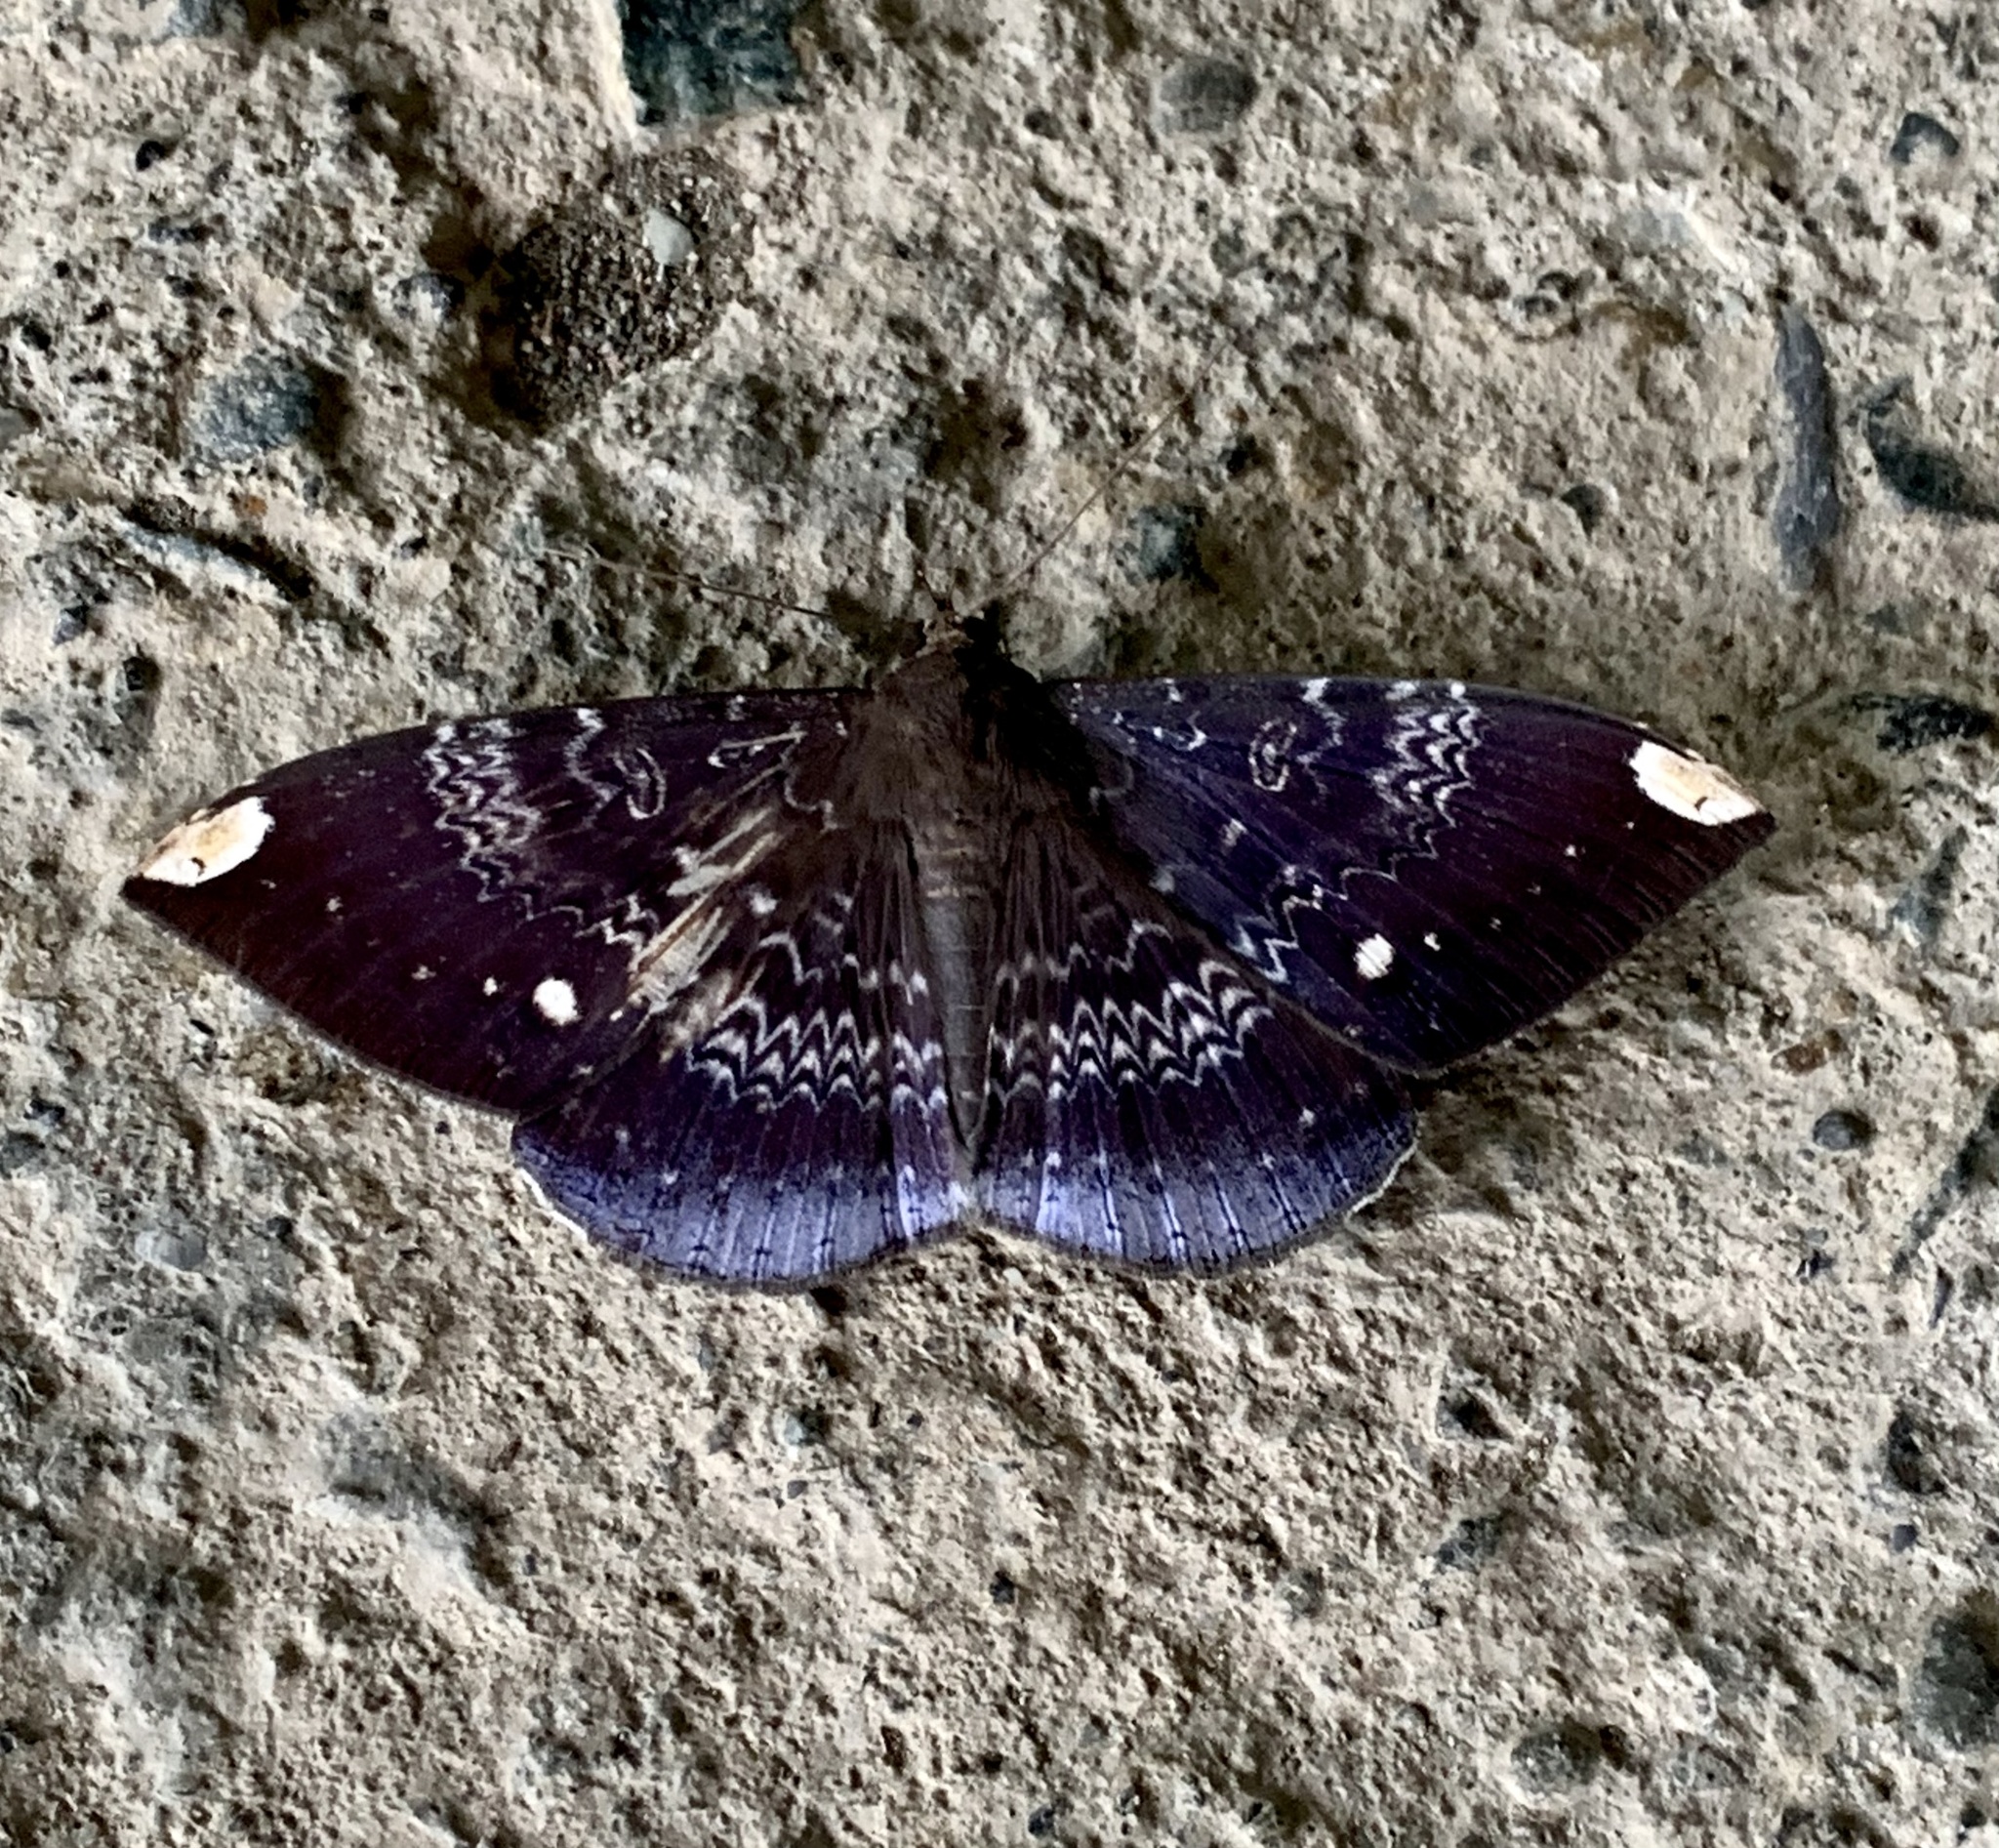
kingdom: Animalia
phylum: Arthropoda
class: Insecta
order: Lepidoptera
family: Erebidae
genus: Hemeroblemma
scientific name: Hemeroblemma dolosa
